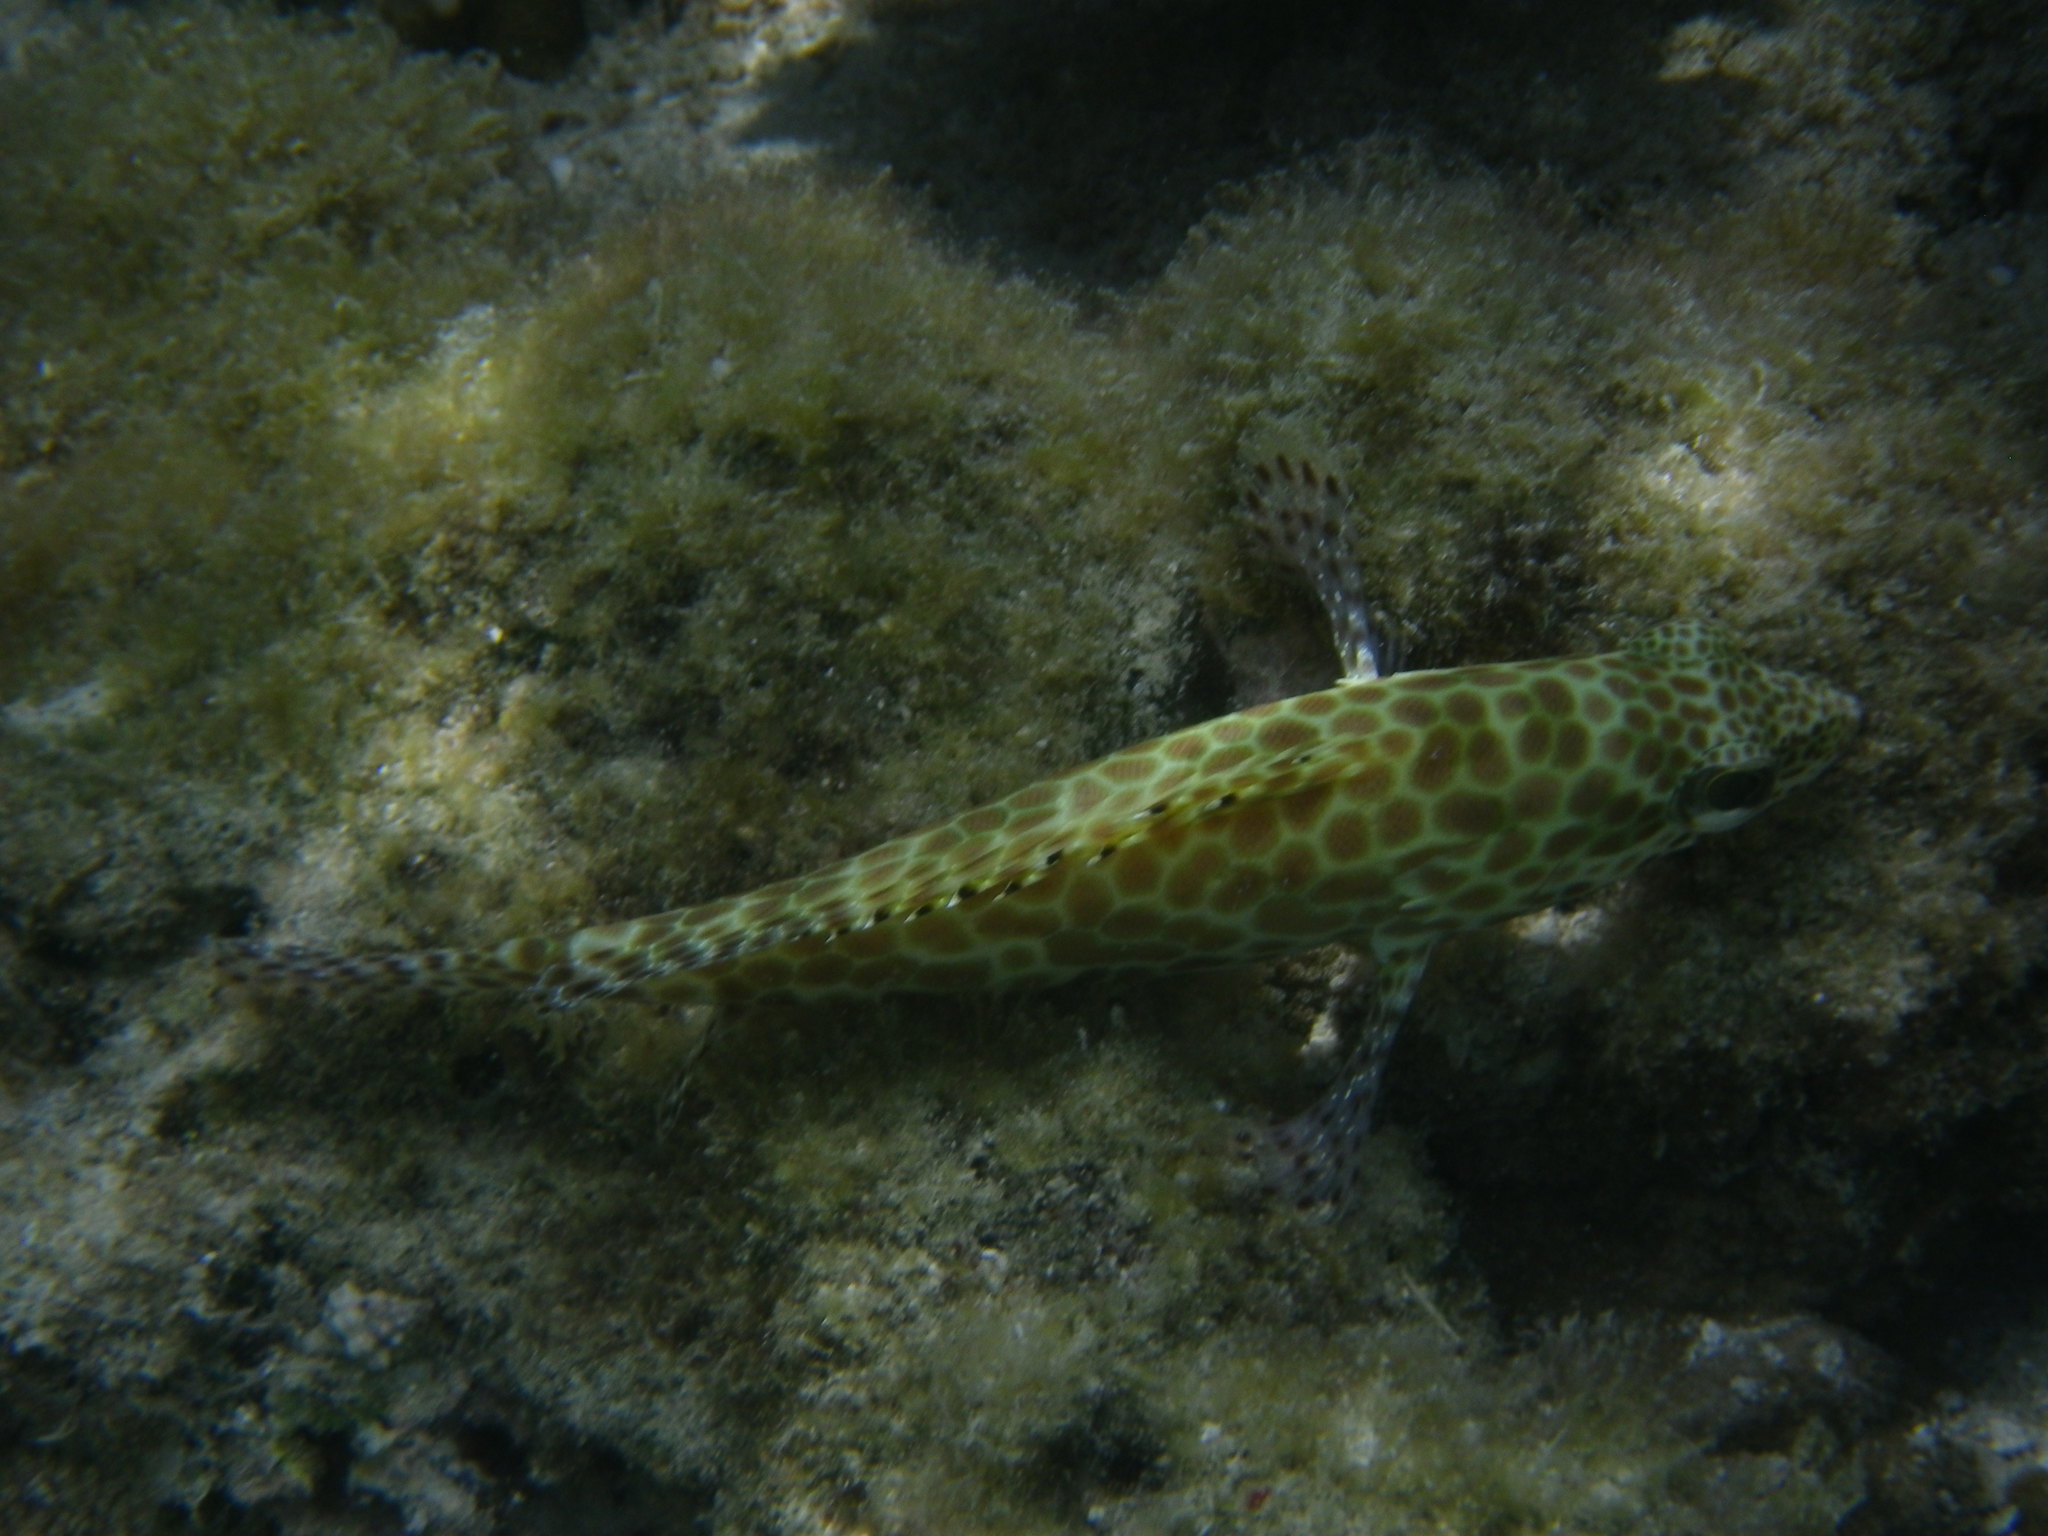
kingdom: Animalia
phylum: Chordata
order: Perciformes
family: Serranidae
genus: Epinephelus
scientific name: Epinephelus merra
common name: Honeycomb grouper
